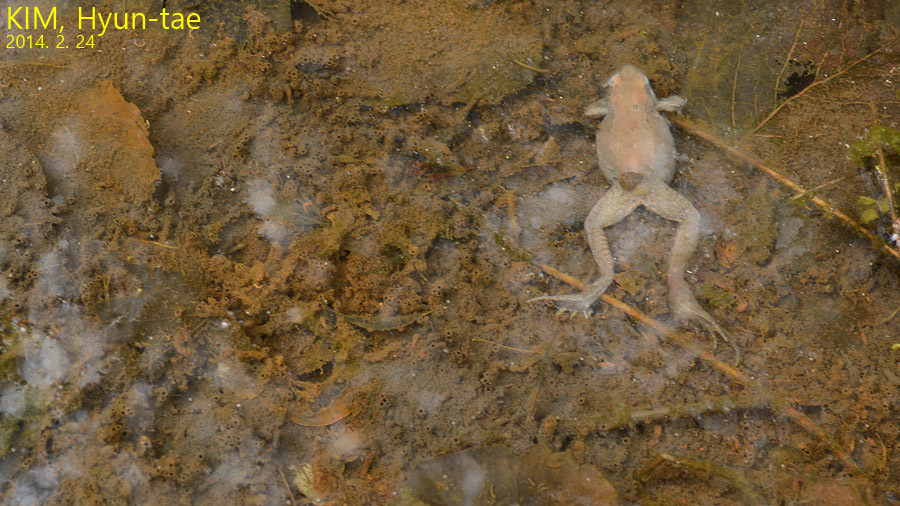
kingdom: Animalia
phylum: Chordata
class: Amphibia
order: Anura
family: Ranidae
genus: Rana
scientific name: Rana coreana
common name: Korean brown frog
